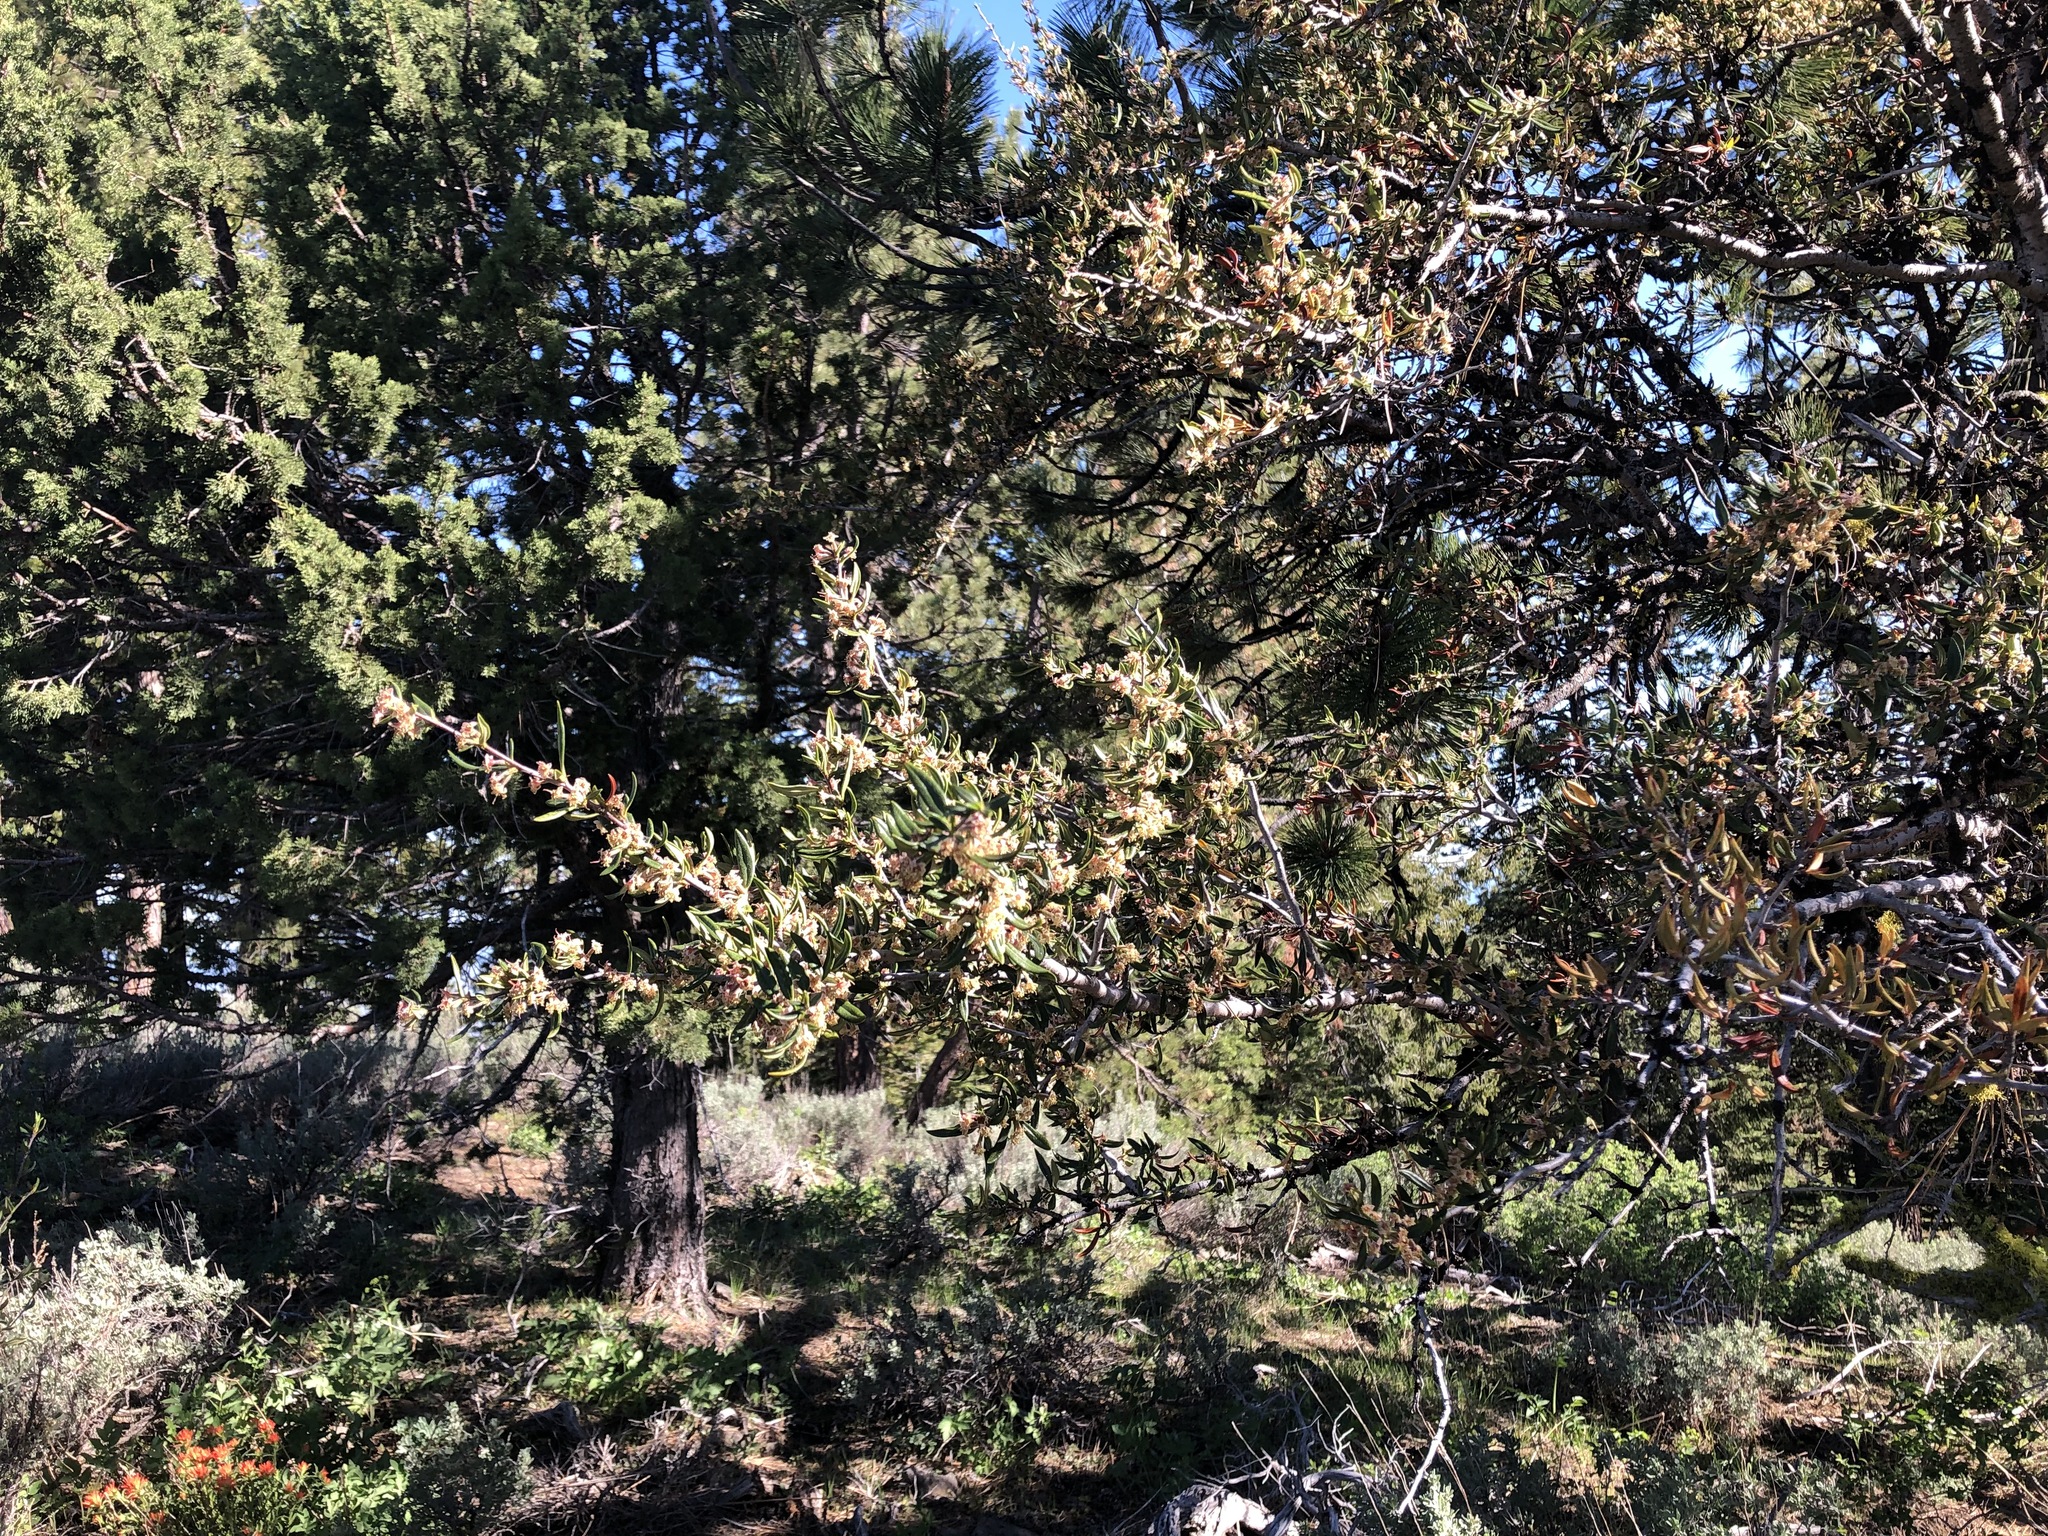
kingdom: Plantae
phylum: Tracheophyta
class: Magnoliopsida
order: Rosales
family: Rosaceae
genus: Cercocarpus
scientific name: Cercocarpus ledifolius
